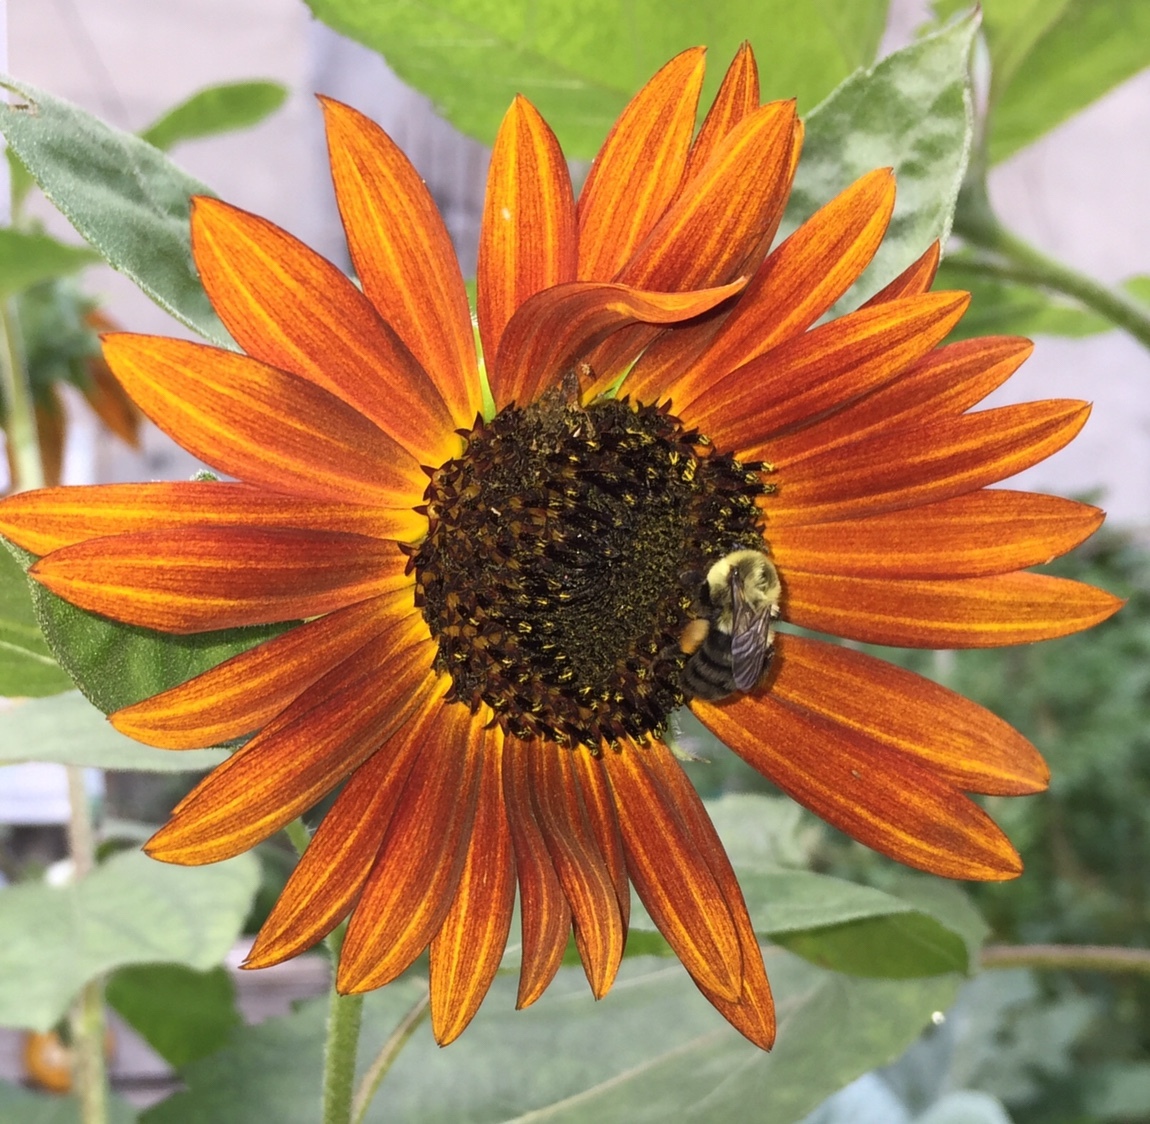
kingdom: Animalia
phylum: Arthropoda
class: Insecta
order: Hymenoptera
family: Apidae
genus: Bombus
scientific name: Bombus impatiens
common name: Common eastern bumble bee
